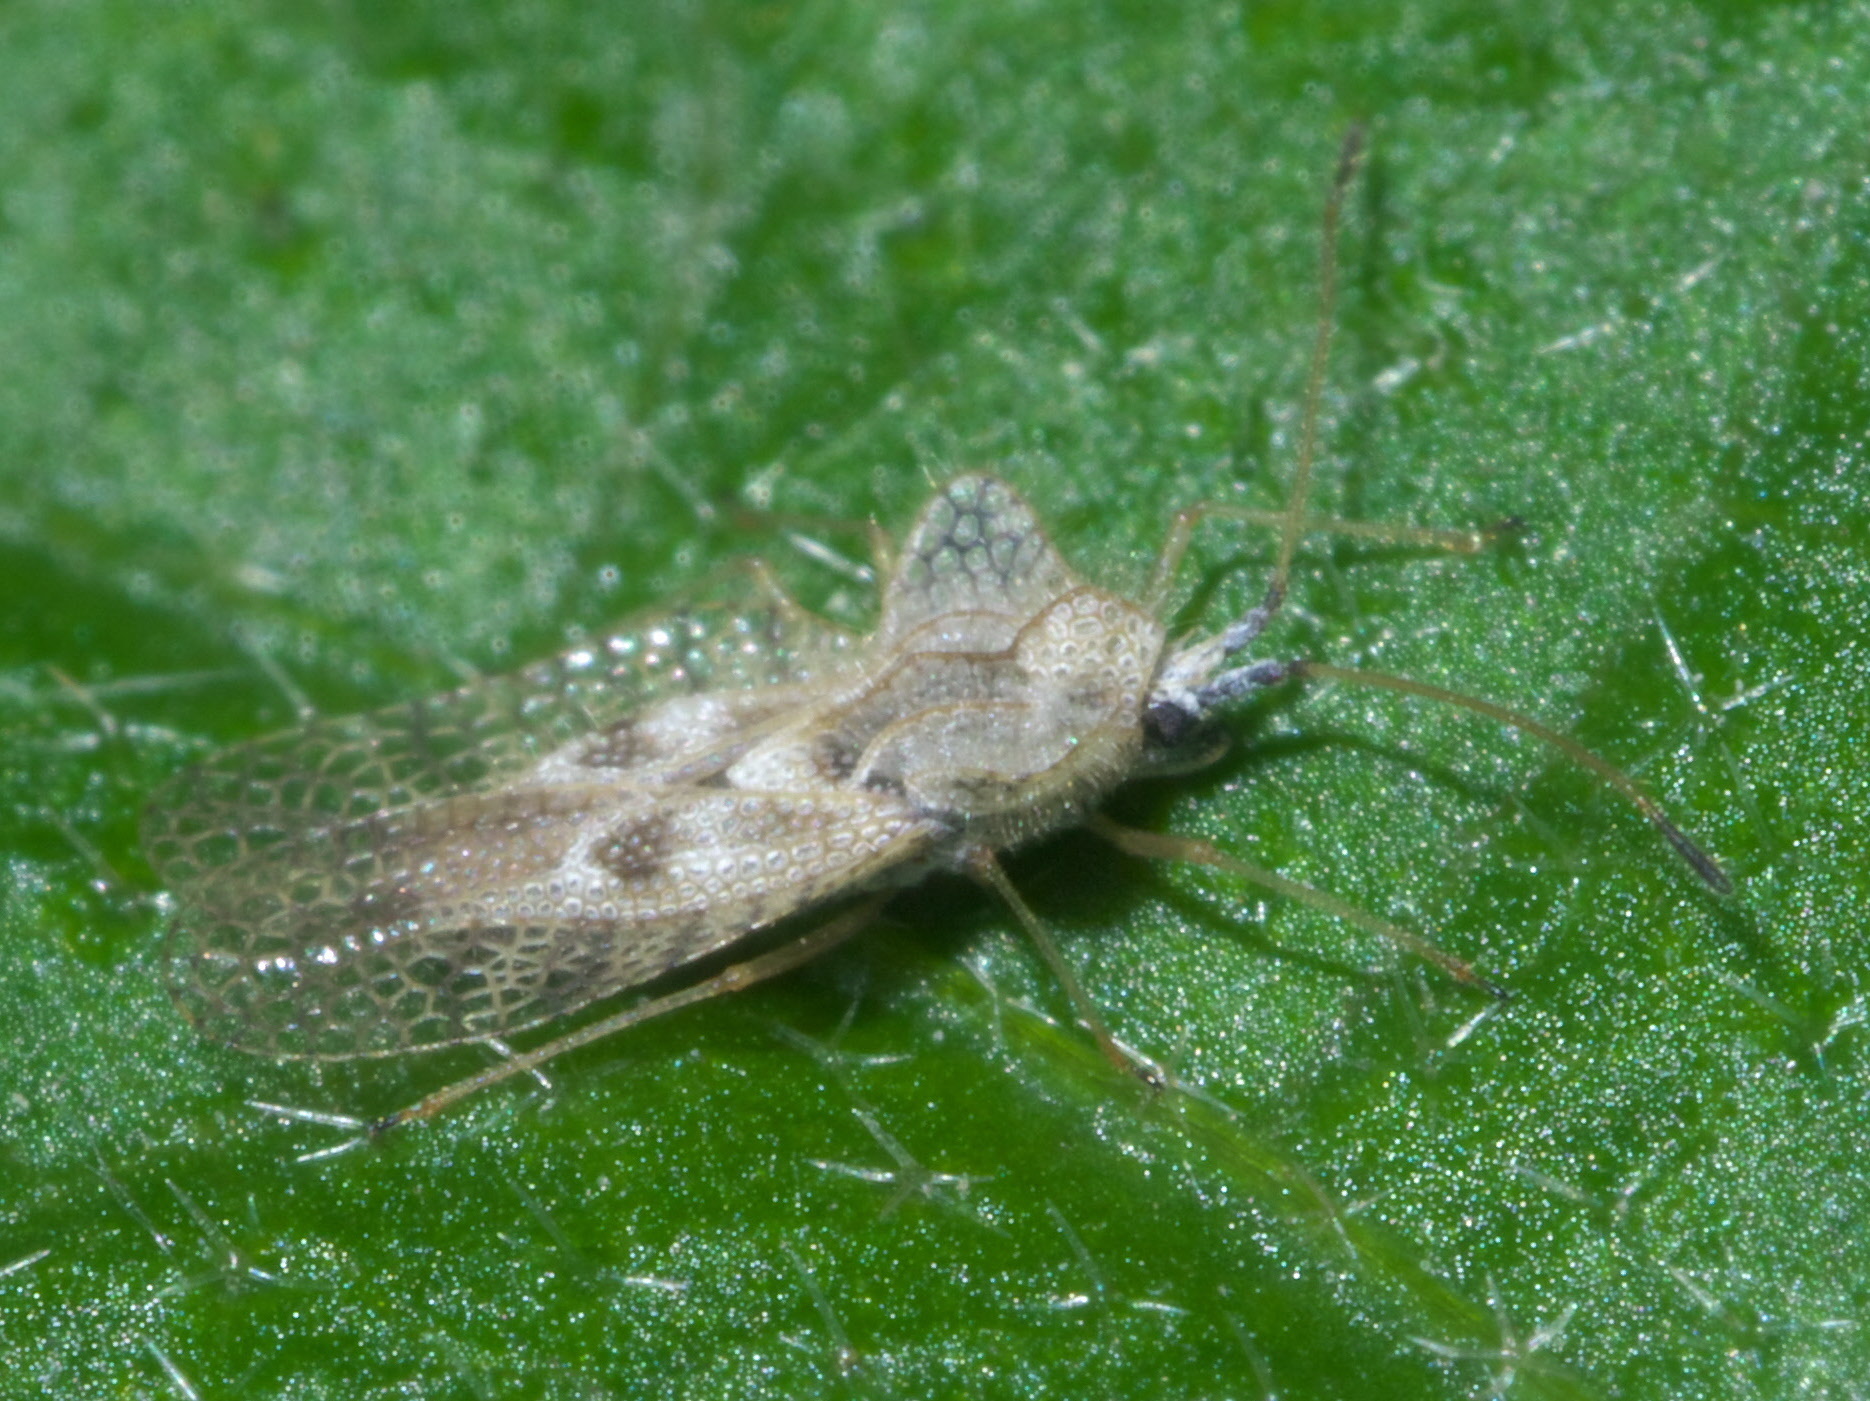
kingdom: Animalia
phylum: Arthropoda
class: Insecta
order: Hemiptera
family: Tingidae
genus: Gargaphia
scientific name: Gargaphia solani
